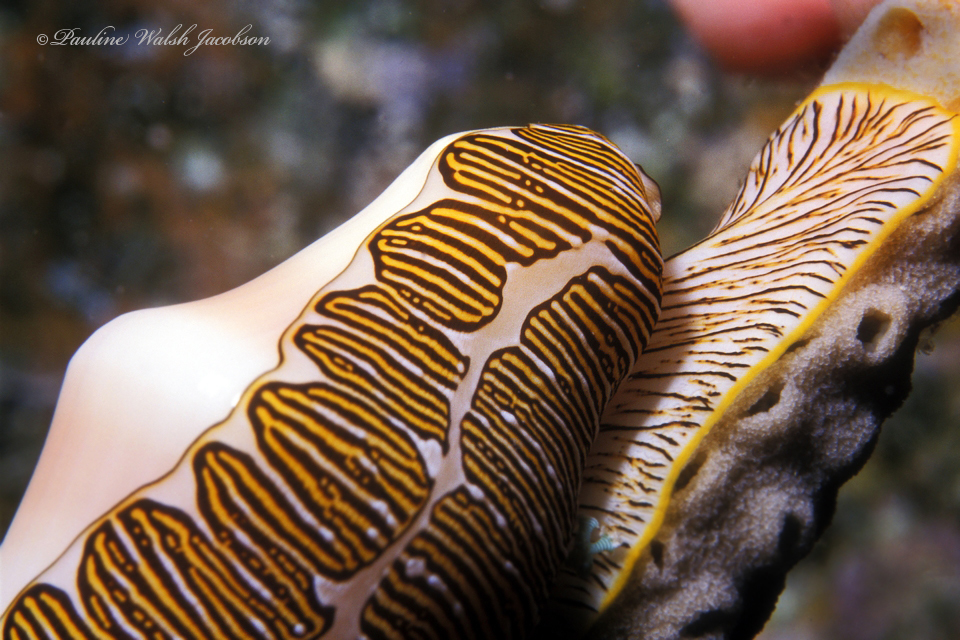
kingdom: Animalia
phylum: Mollusca
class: Gastropoda
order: Littorinimorpha
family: Ovulidae
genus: Cyphoma
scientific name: Cyphoma signatum
